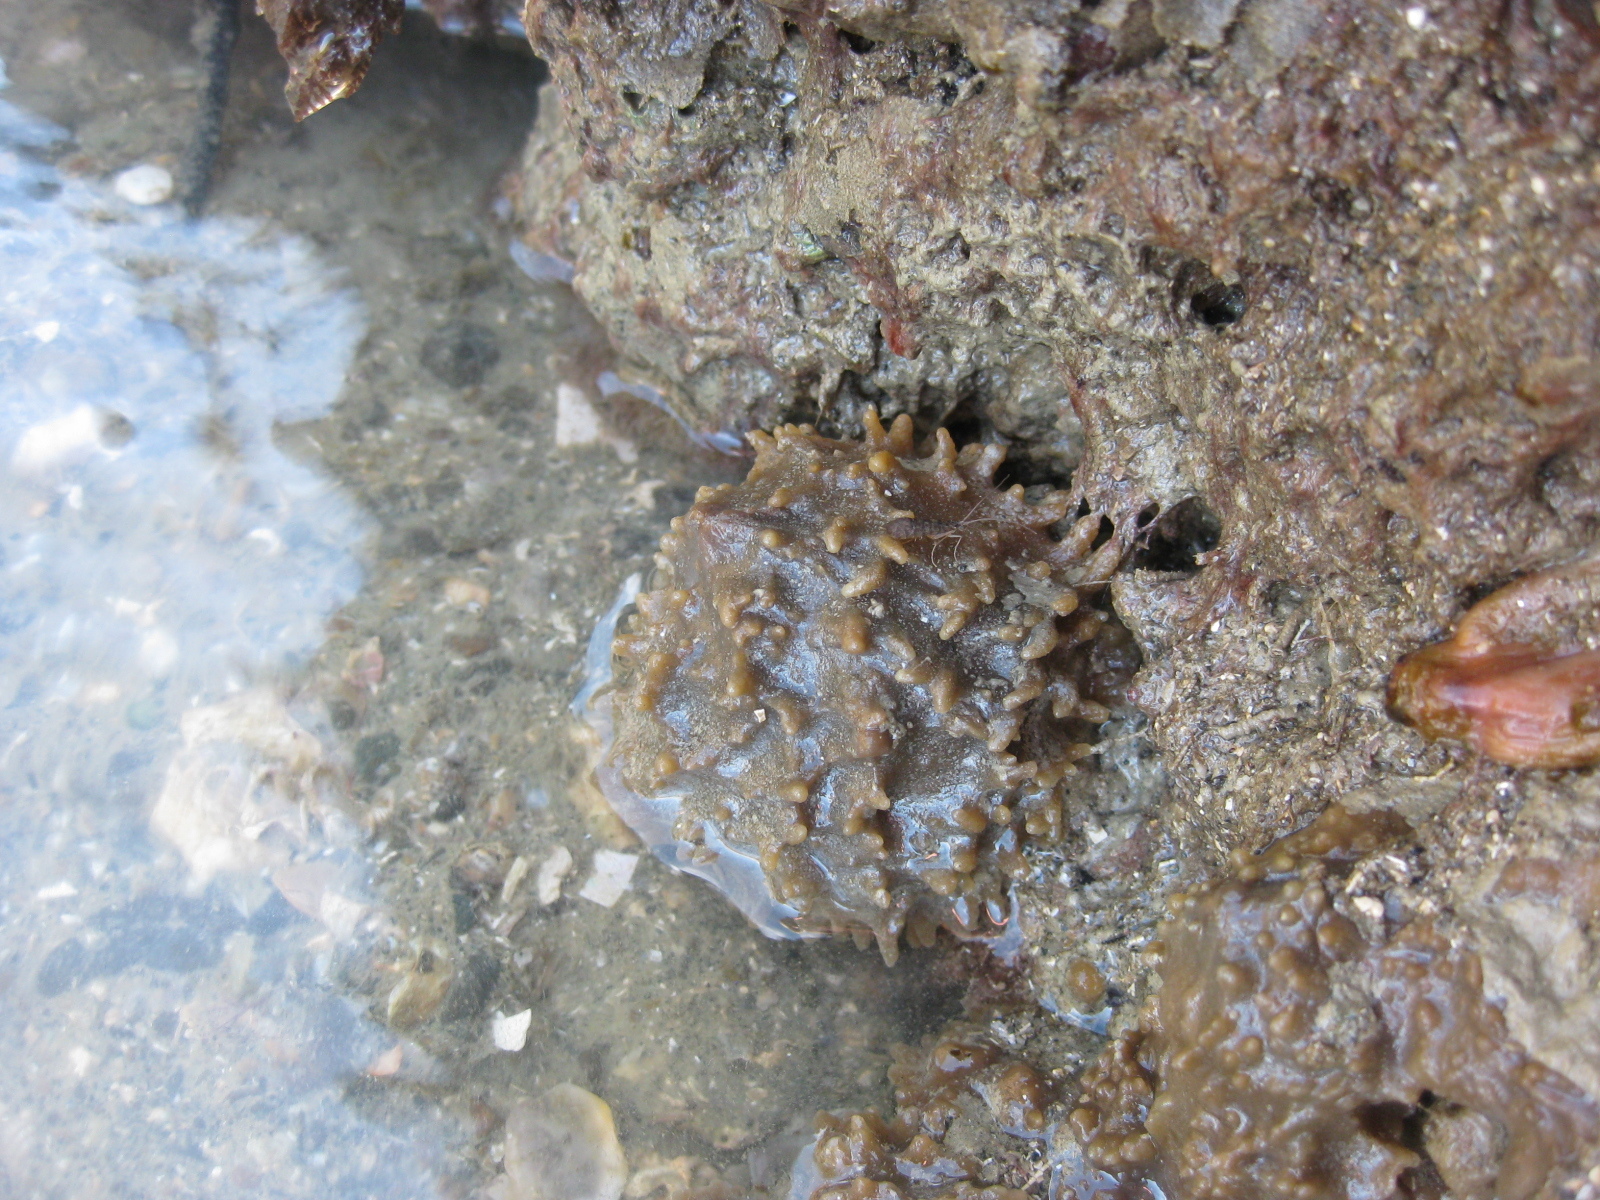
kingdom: Animalia
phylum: Porifera
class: Demospongiae
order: Suberitida
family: Suberitidae
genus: Aaptos
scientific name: Aaptos tenta
